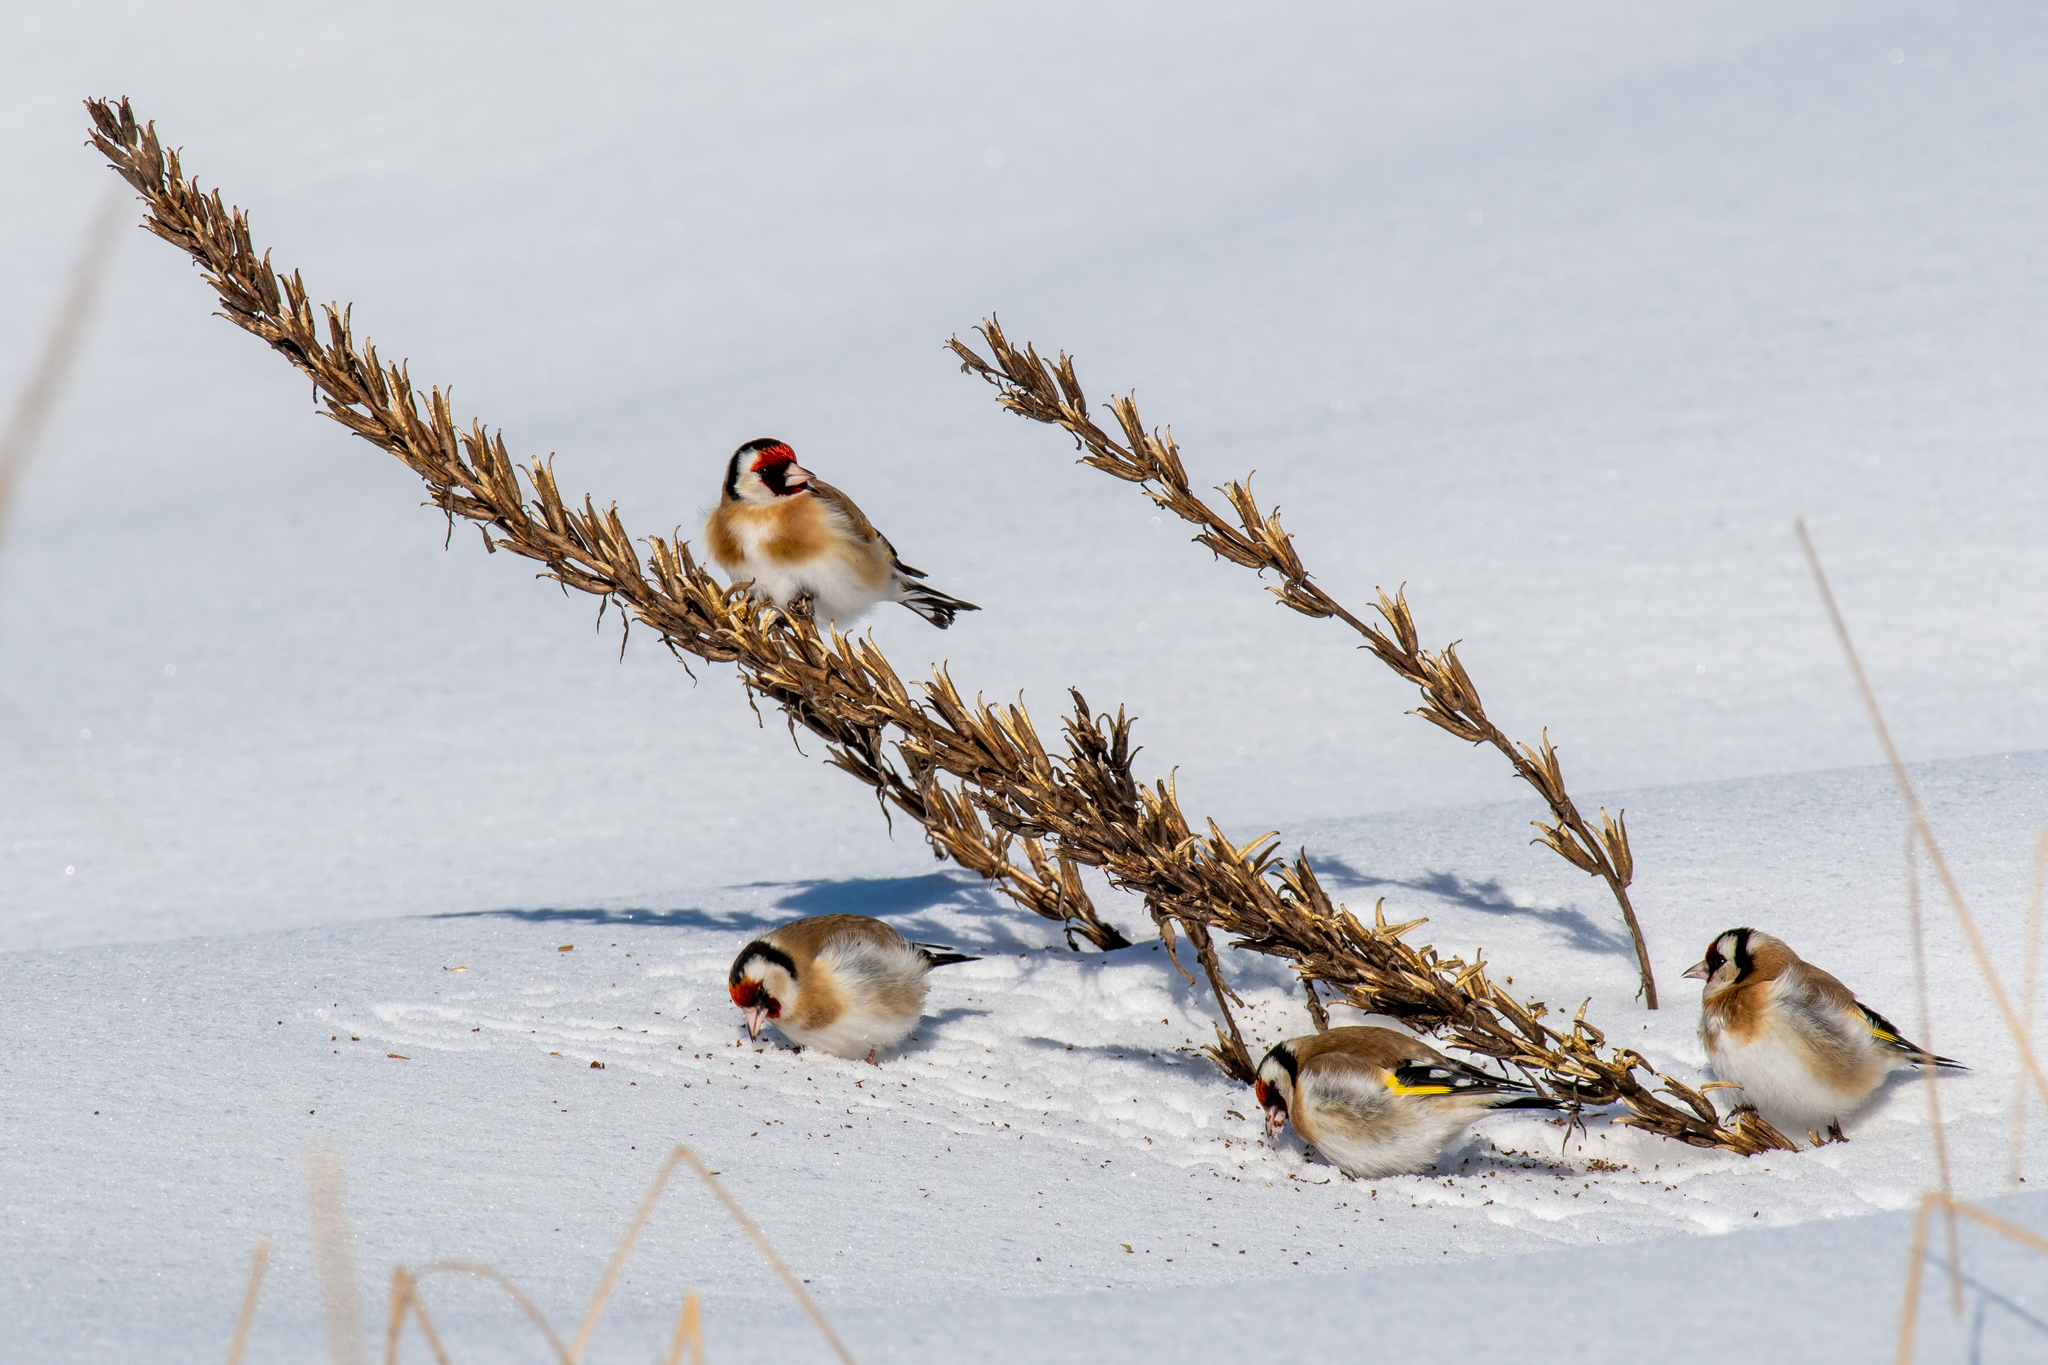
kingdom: Animalia
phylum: Chordata
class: Aves
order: Passeriformes
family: Fringillidae
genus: Carduelis
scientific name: Carduelis carduelis
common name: European goldfinch
